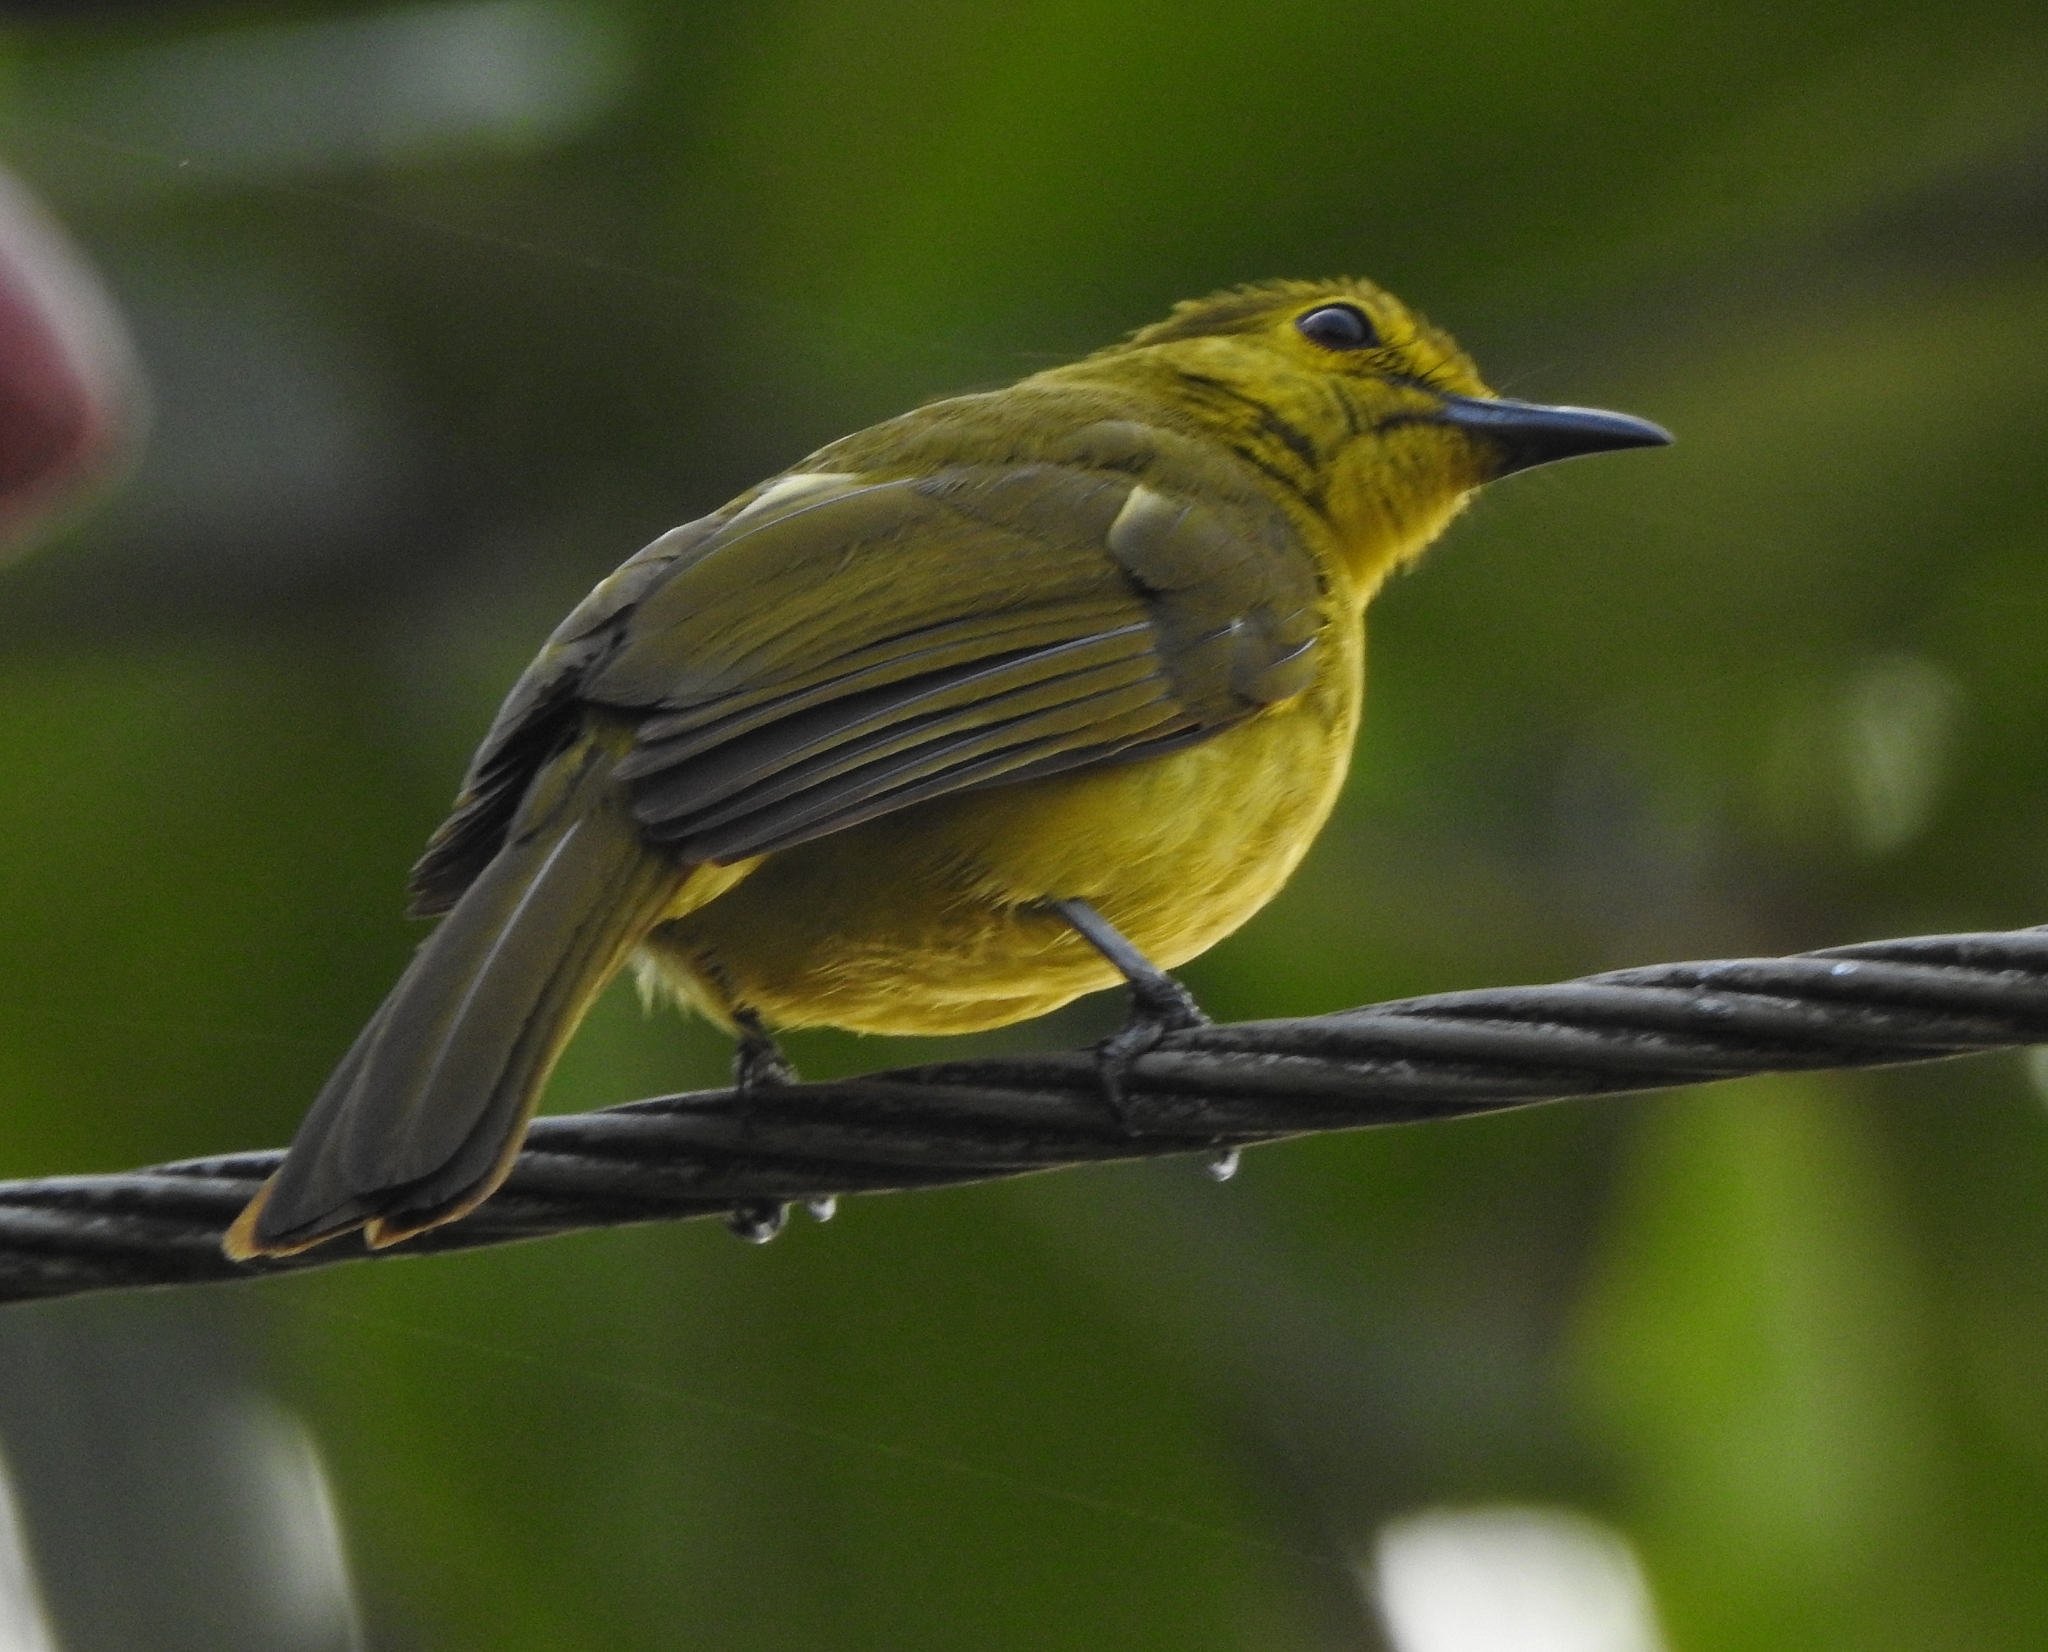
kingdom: Animalia
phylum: Chordata
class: Aves
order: Passeriformes
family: Pycnonotidae
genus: Acritillas
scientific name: Acritillas indica
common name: Yellow-browed bulbul
